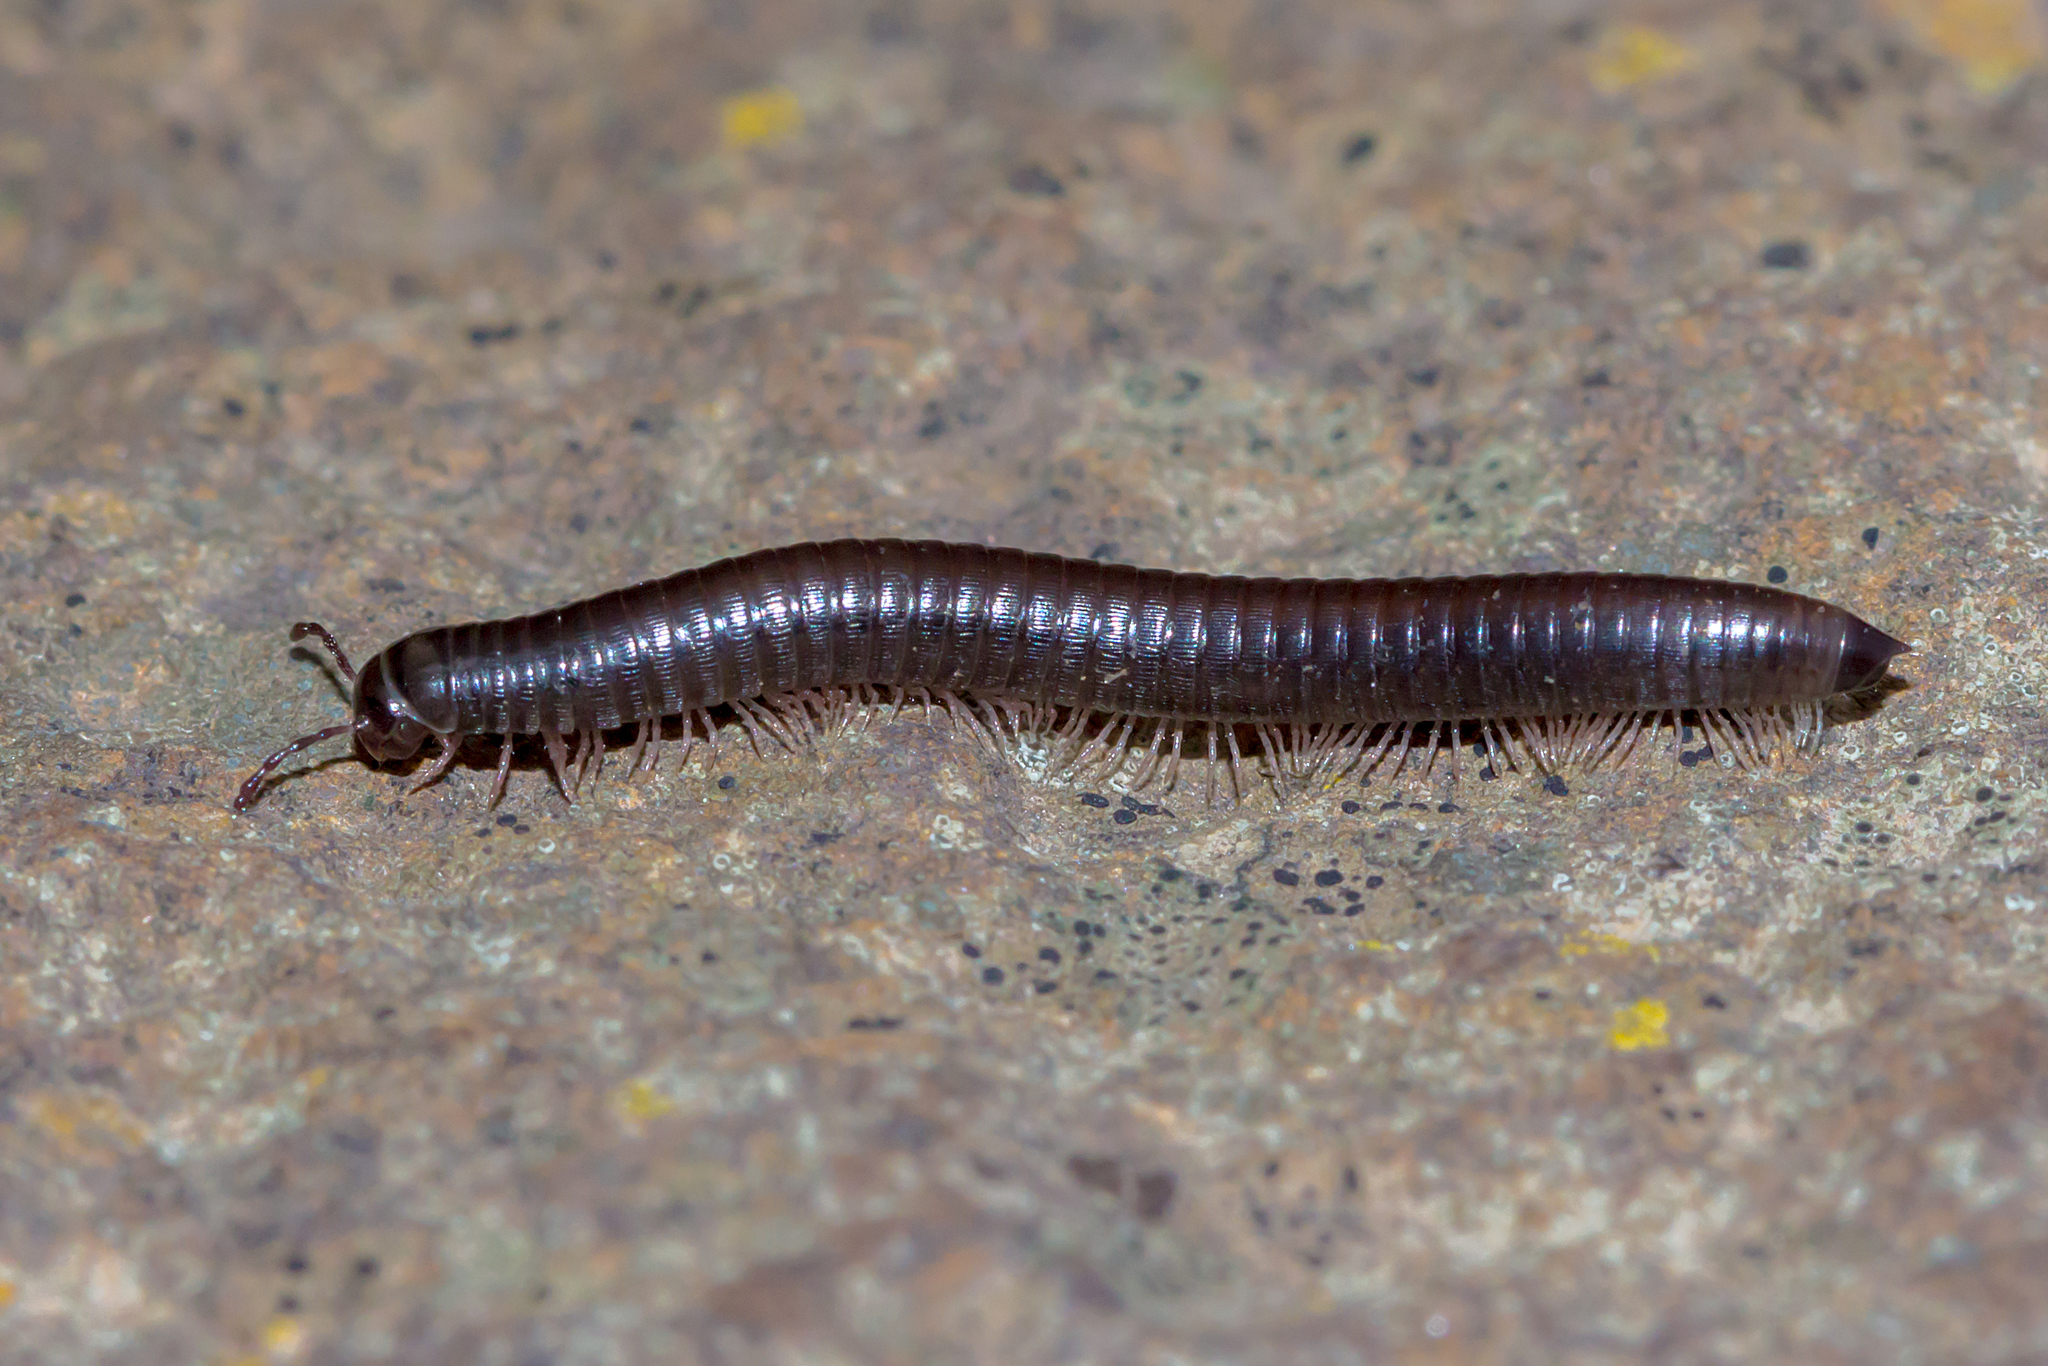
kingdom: Animalia
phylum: Arthropoda
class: Diplopoda
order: Julida
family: Julidae
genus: Ommatoiulus
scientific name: Ommatoiulus moreleti
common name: Portuguese millipede
